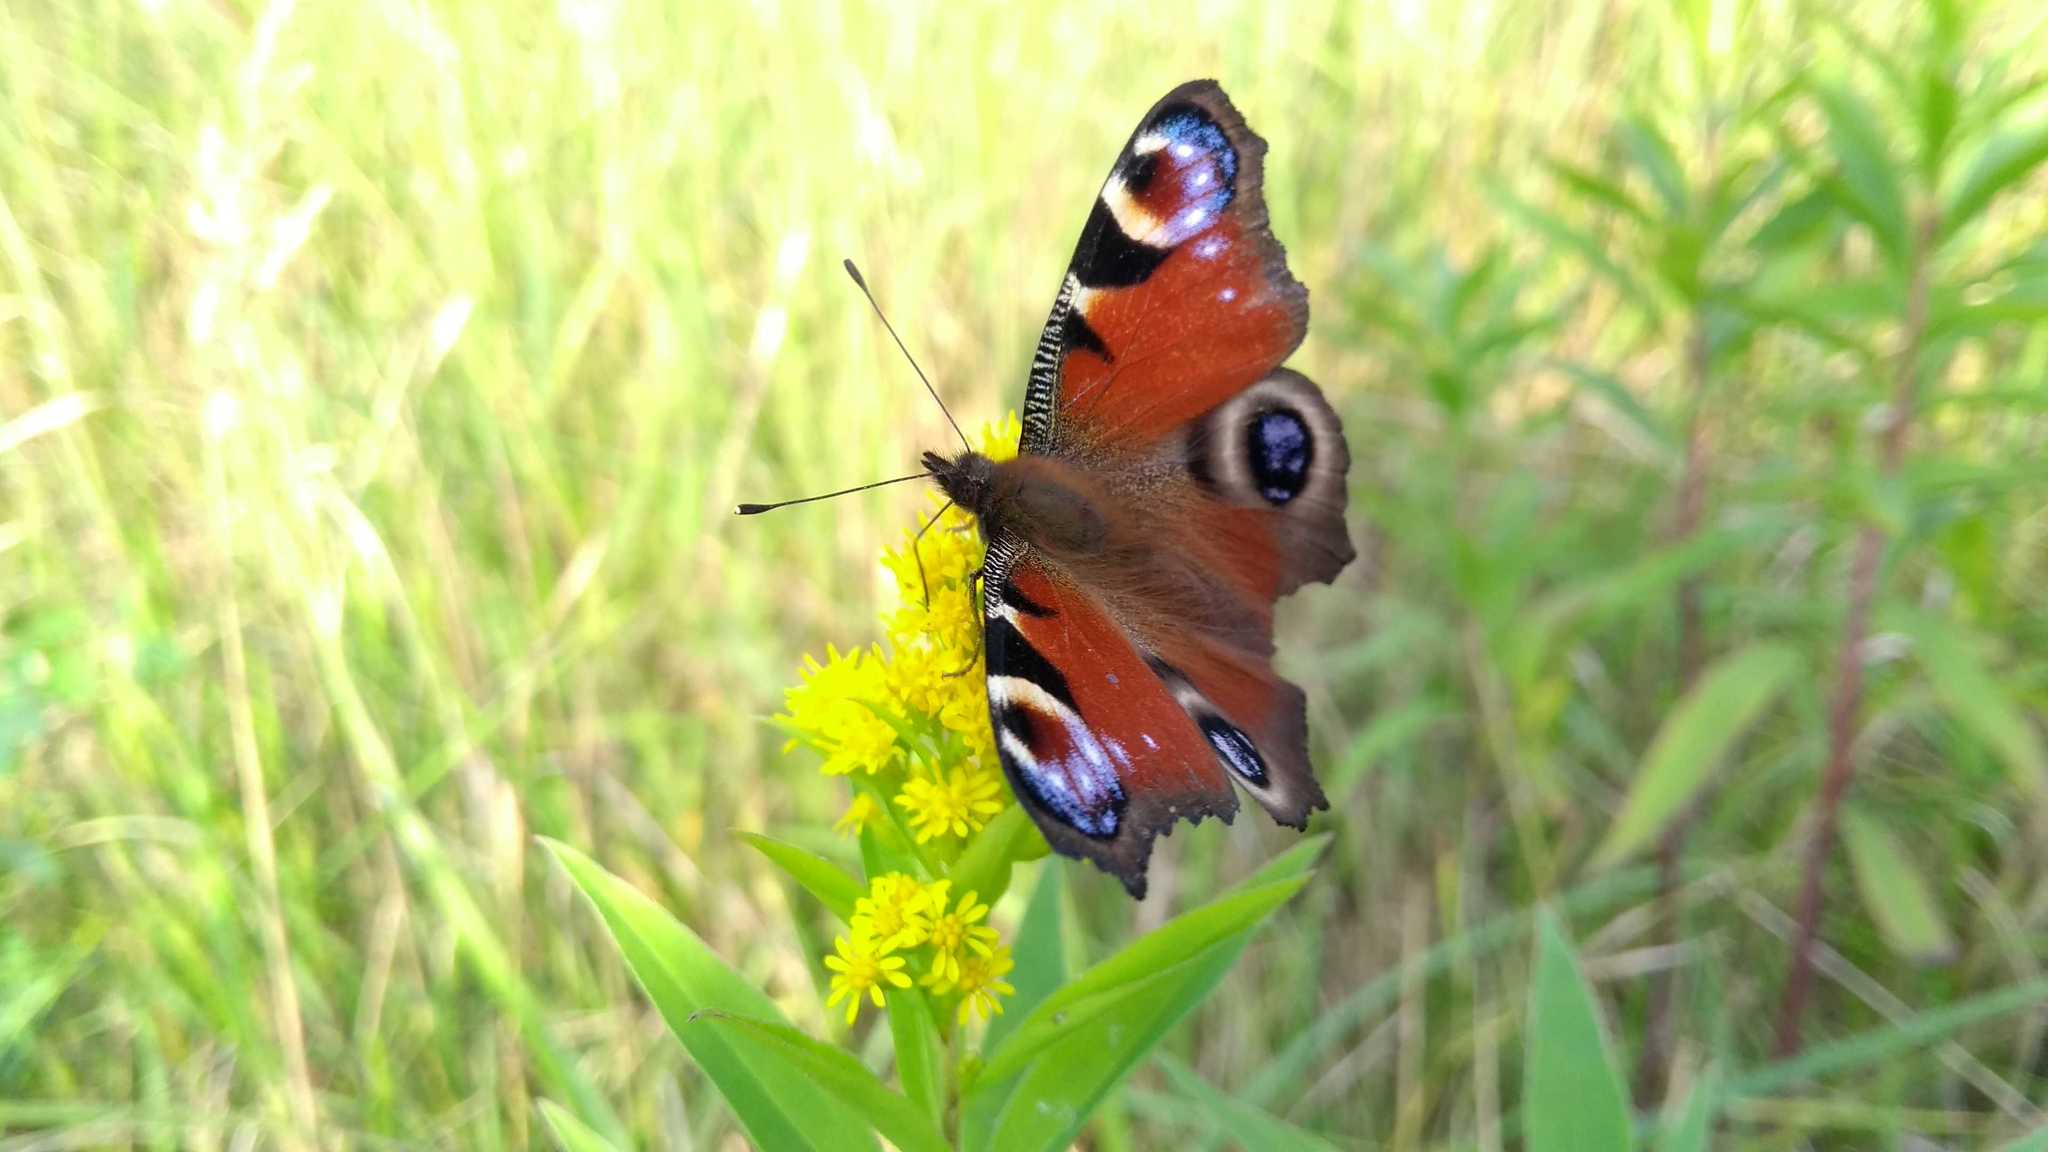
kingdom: Animalia
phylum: Arthropoda
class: Insecta
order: Lepidoptera
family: Nymphalidae
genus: Aglais
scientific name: Aglais io
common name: Peacock
